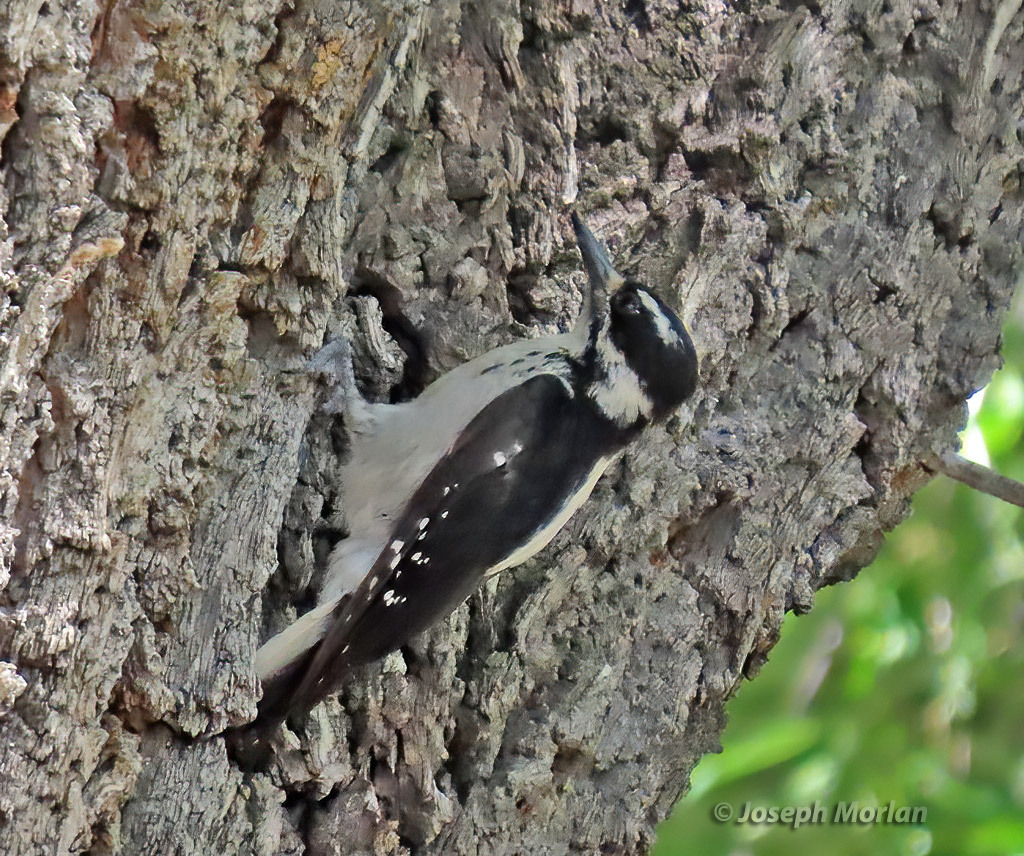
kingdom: Animalia
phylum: Chordata
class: Aves
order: Piciformes
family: Picidae
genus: Leuconotopicus
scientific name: Leuconotopicus villosus
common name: Hairy woodpecker
